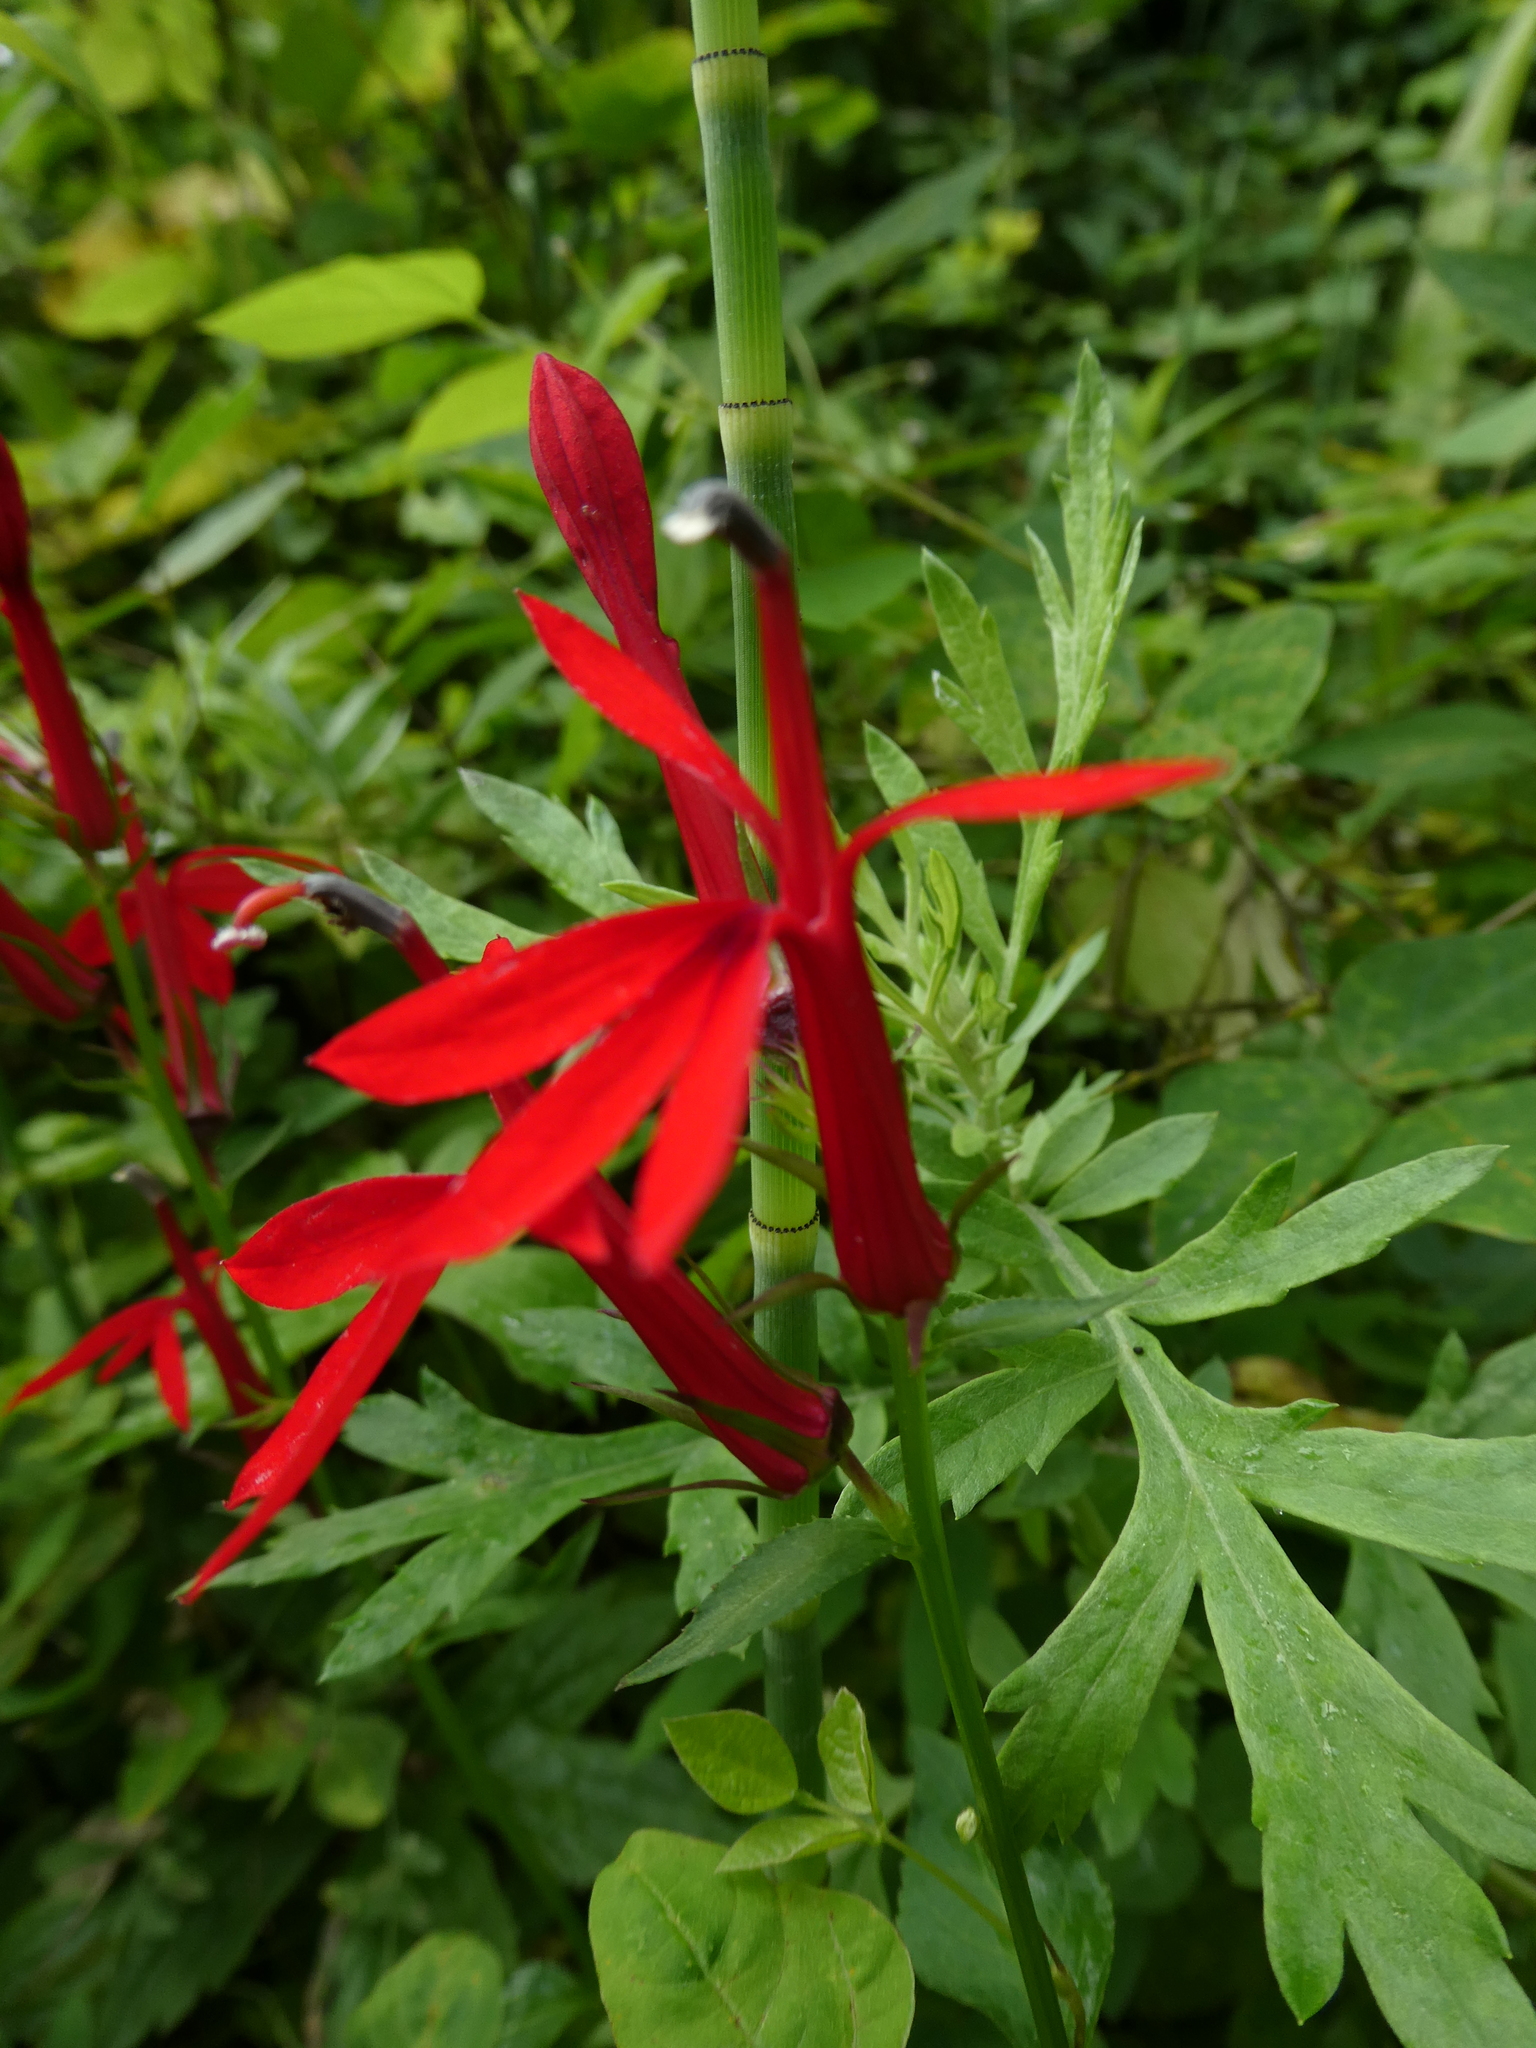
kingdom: Plantae
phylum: Tracheophyta
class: Magnoliopsida
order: Asterales
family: Campanulaceae
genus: Lobelia
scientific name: Lobelia cardinalis
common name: Cardinal flower
